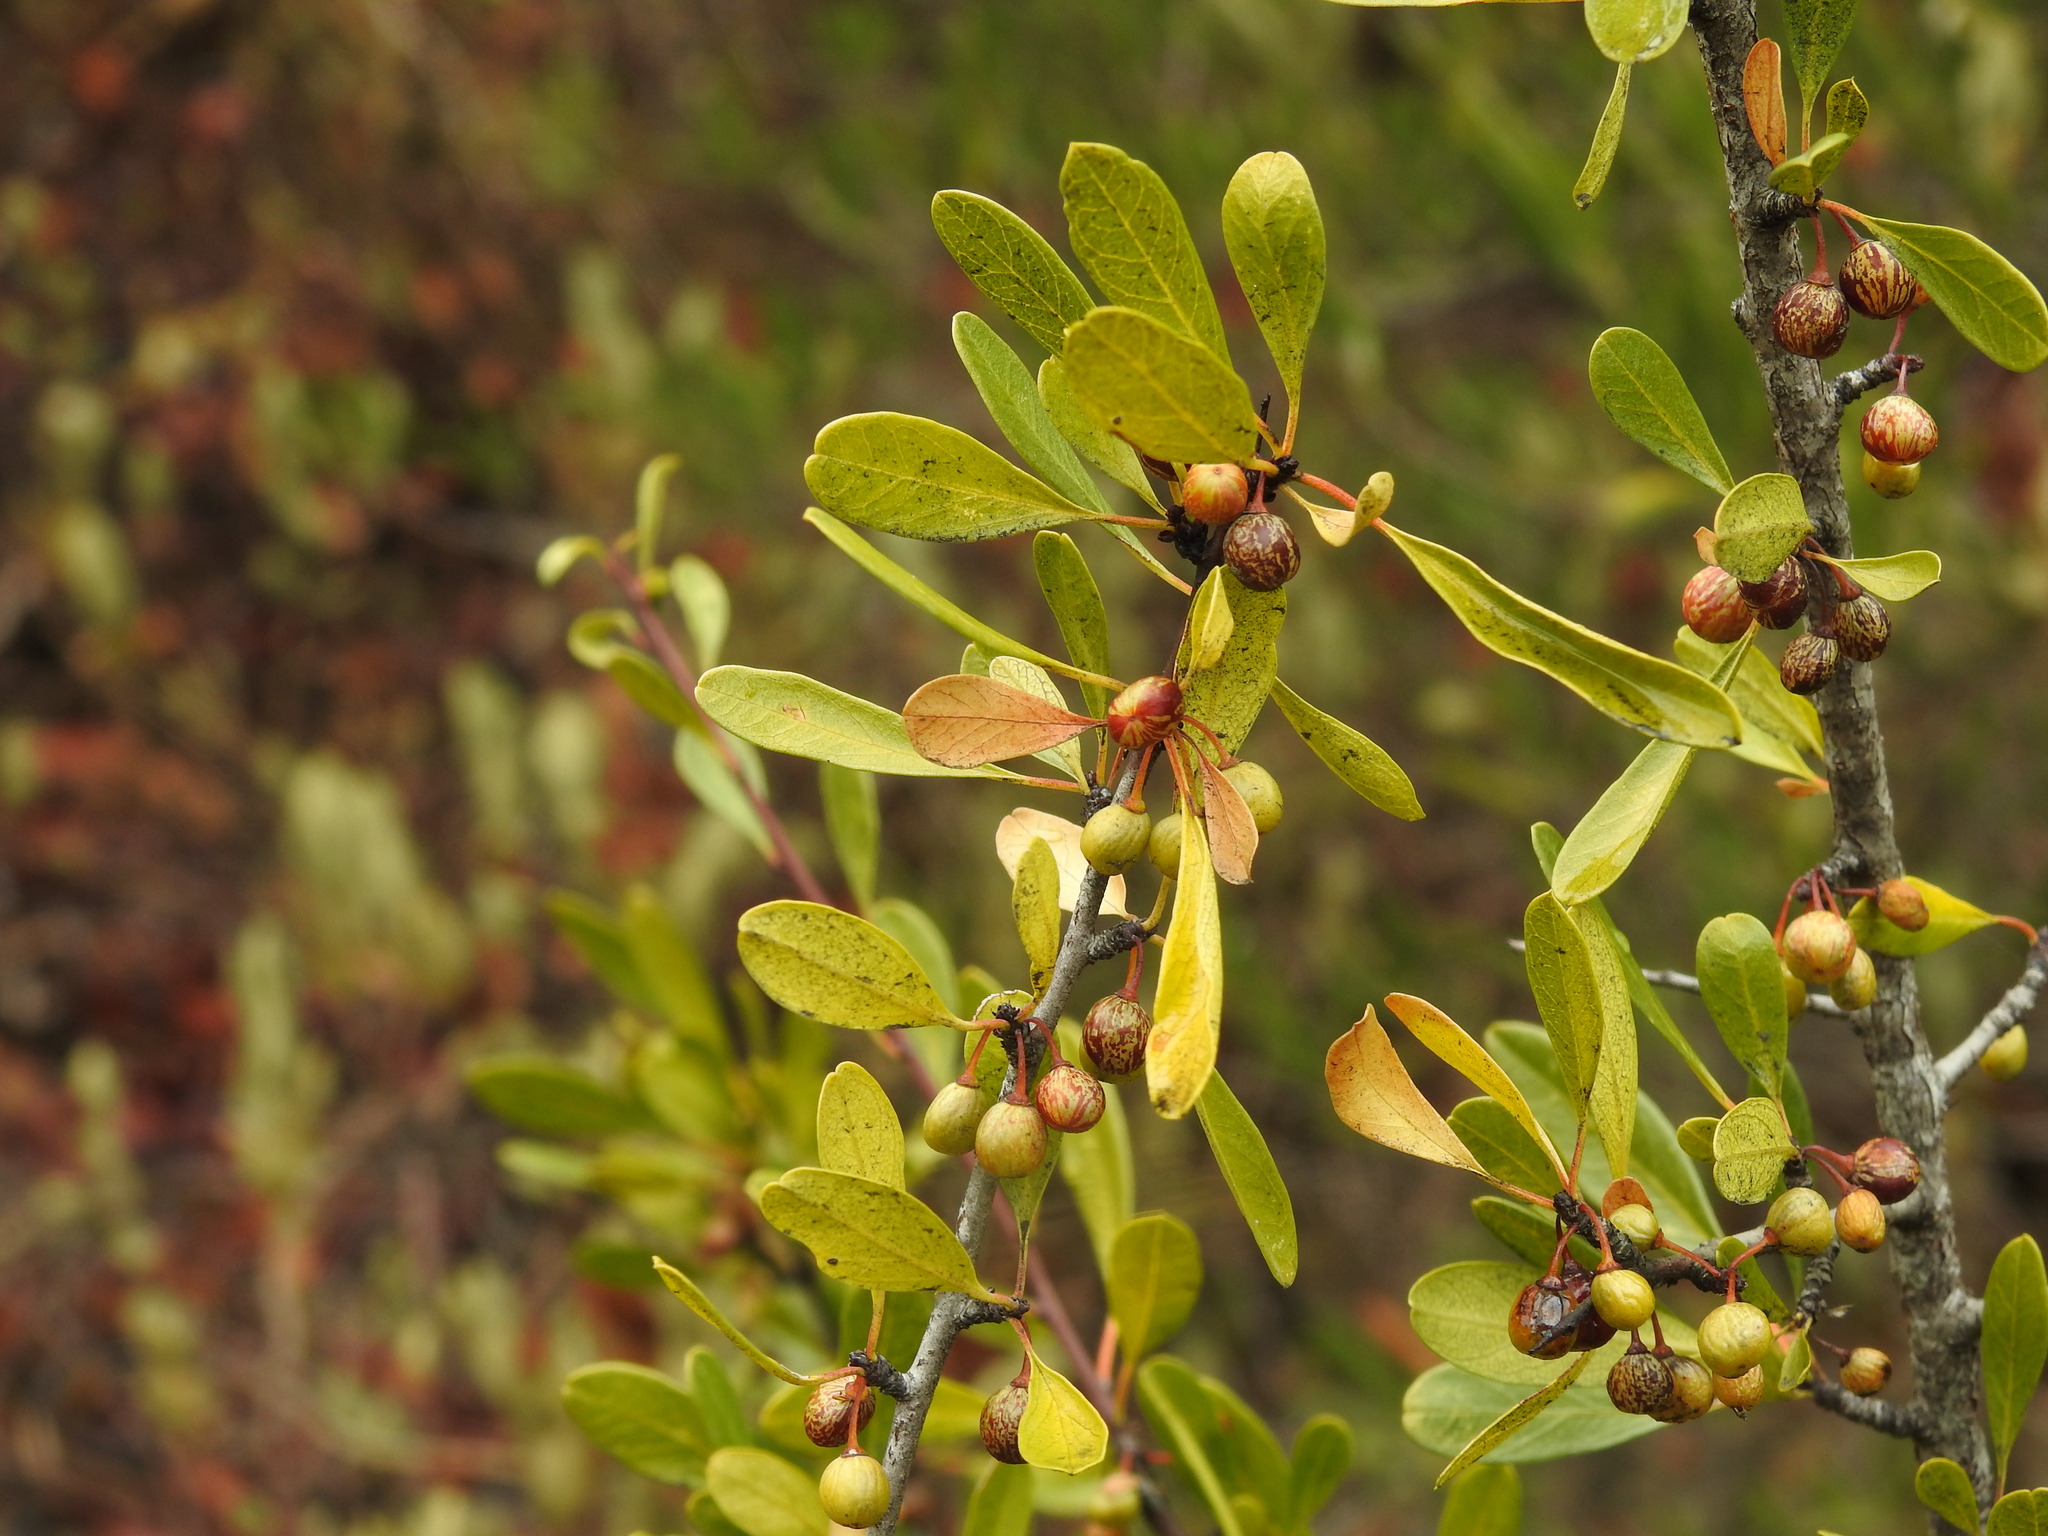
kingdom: Plantae
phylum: Tracheophyta
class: Magnoliopsida
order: Rosales
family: Rhamnaceae
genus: Rhamnus
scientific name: Rhamnus oleoides
